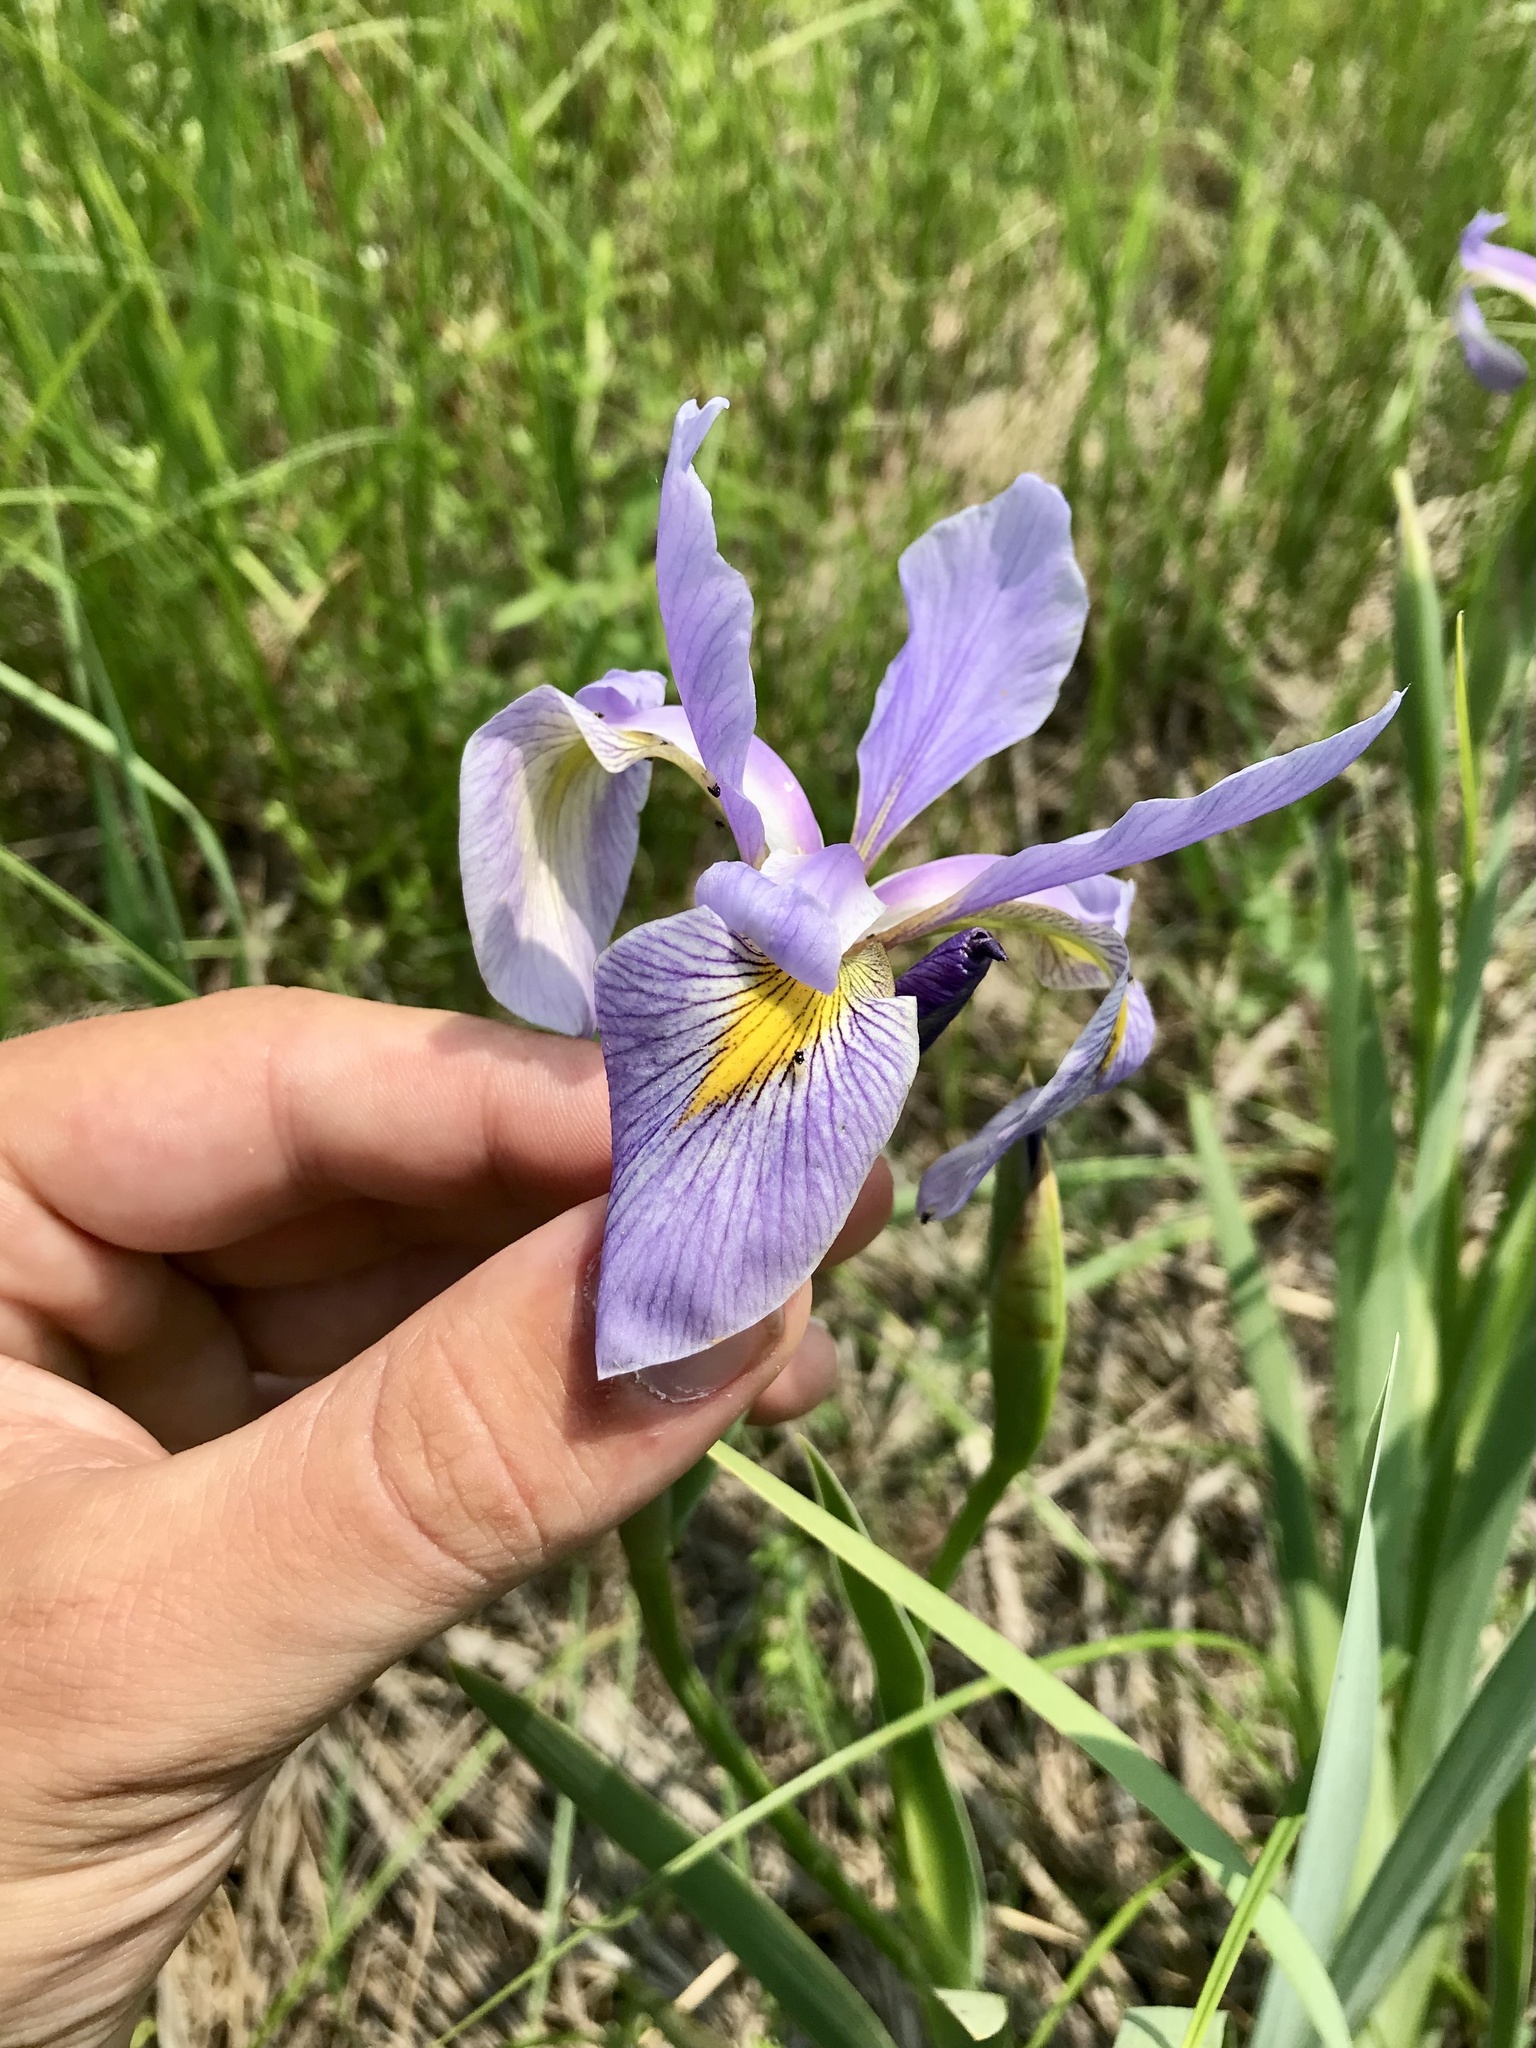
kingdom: Plantae
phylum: Tracheophyta
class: Liliopsida
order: Asparagales
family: Iridaceae
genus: Iris
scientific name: Iris virginica
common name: Southern blue flag
